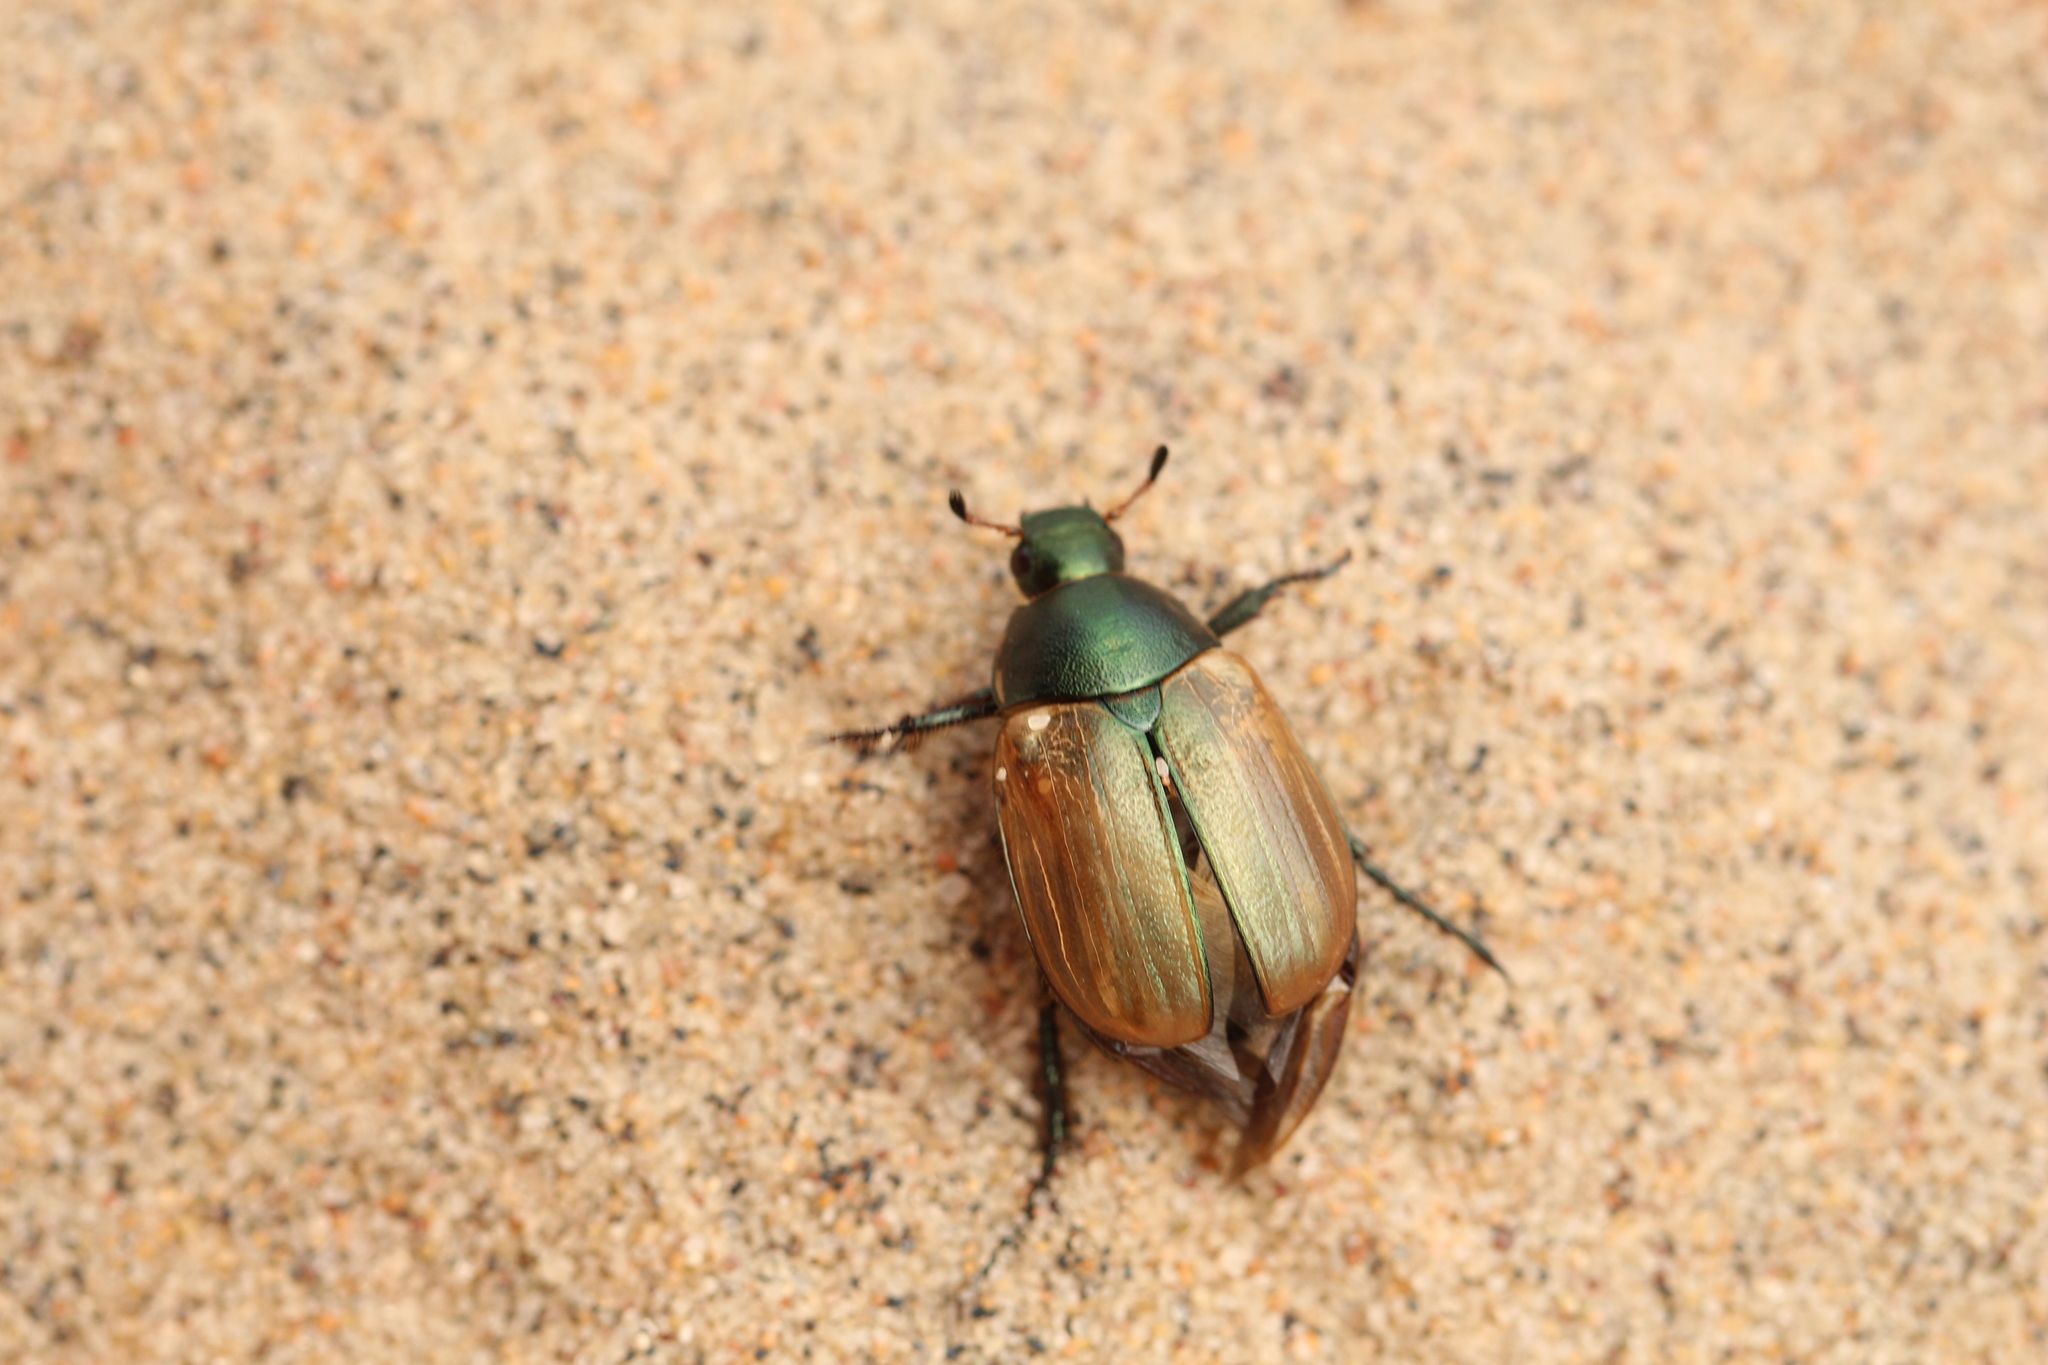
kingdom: Animalia
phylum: Arthropoda
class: Insecta
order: Coleoptera
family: Scarabaeidae
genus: Anomala
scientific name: Anomala dubia
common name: Dune chafer
